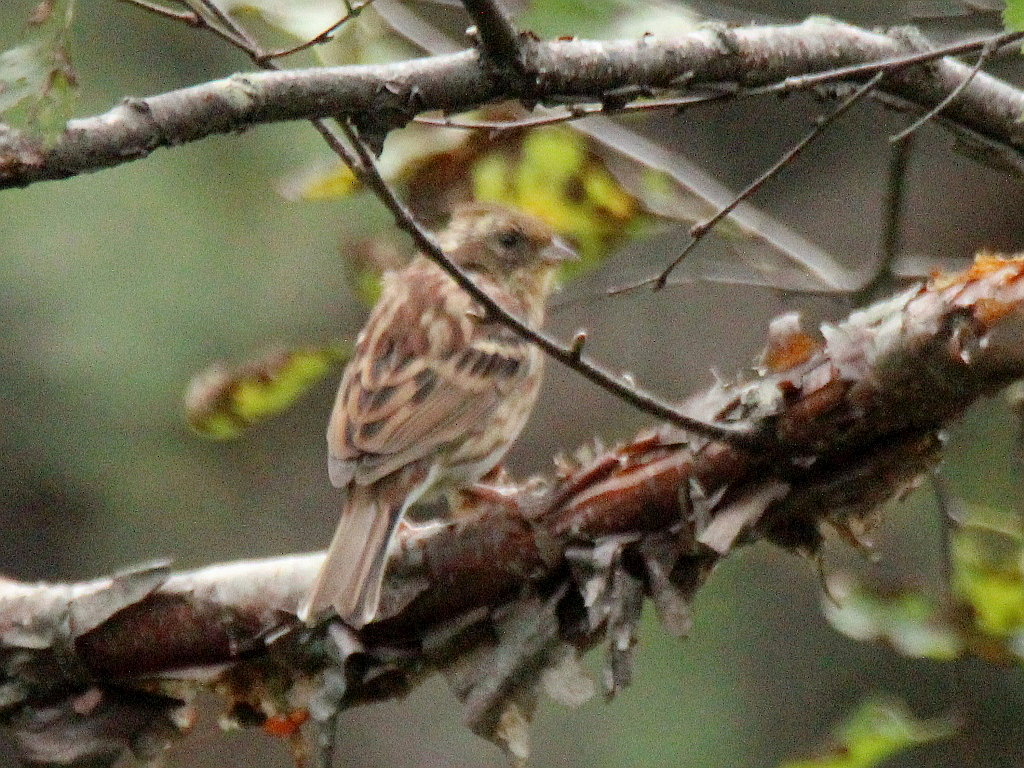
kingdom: Animalia
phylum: Chordata
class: Aves
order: Passeriformes
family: Emberizidae
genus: Emberiza
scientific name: Emberiza elegans
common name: Yellow-throated bunting
